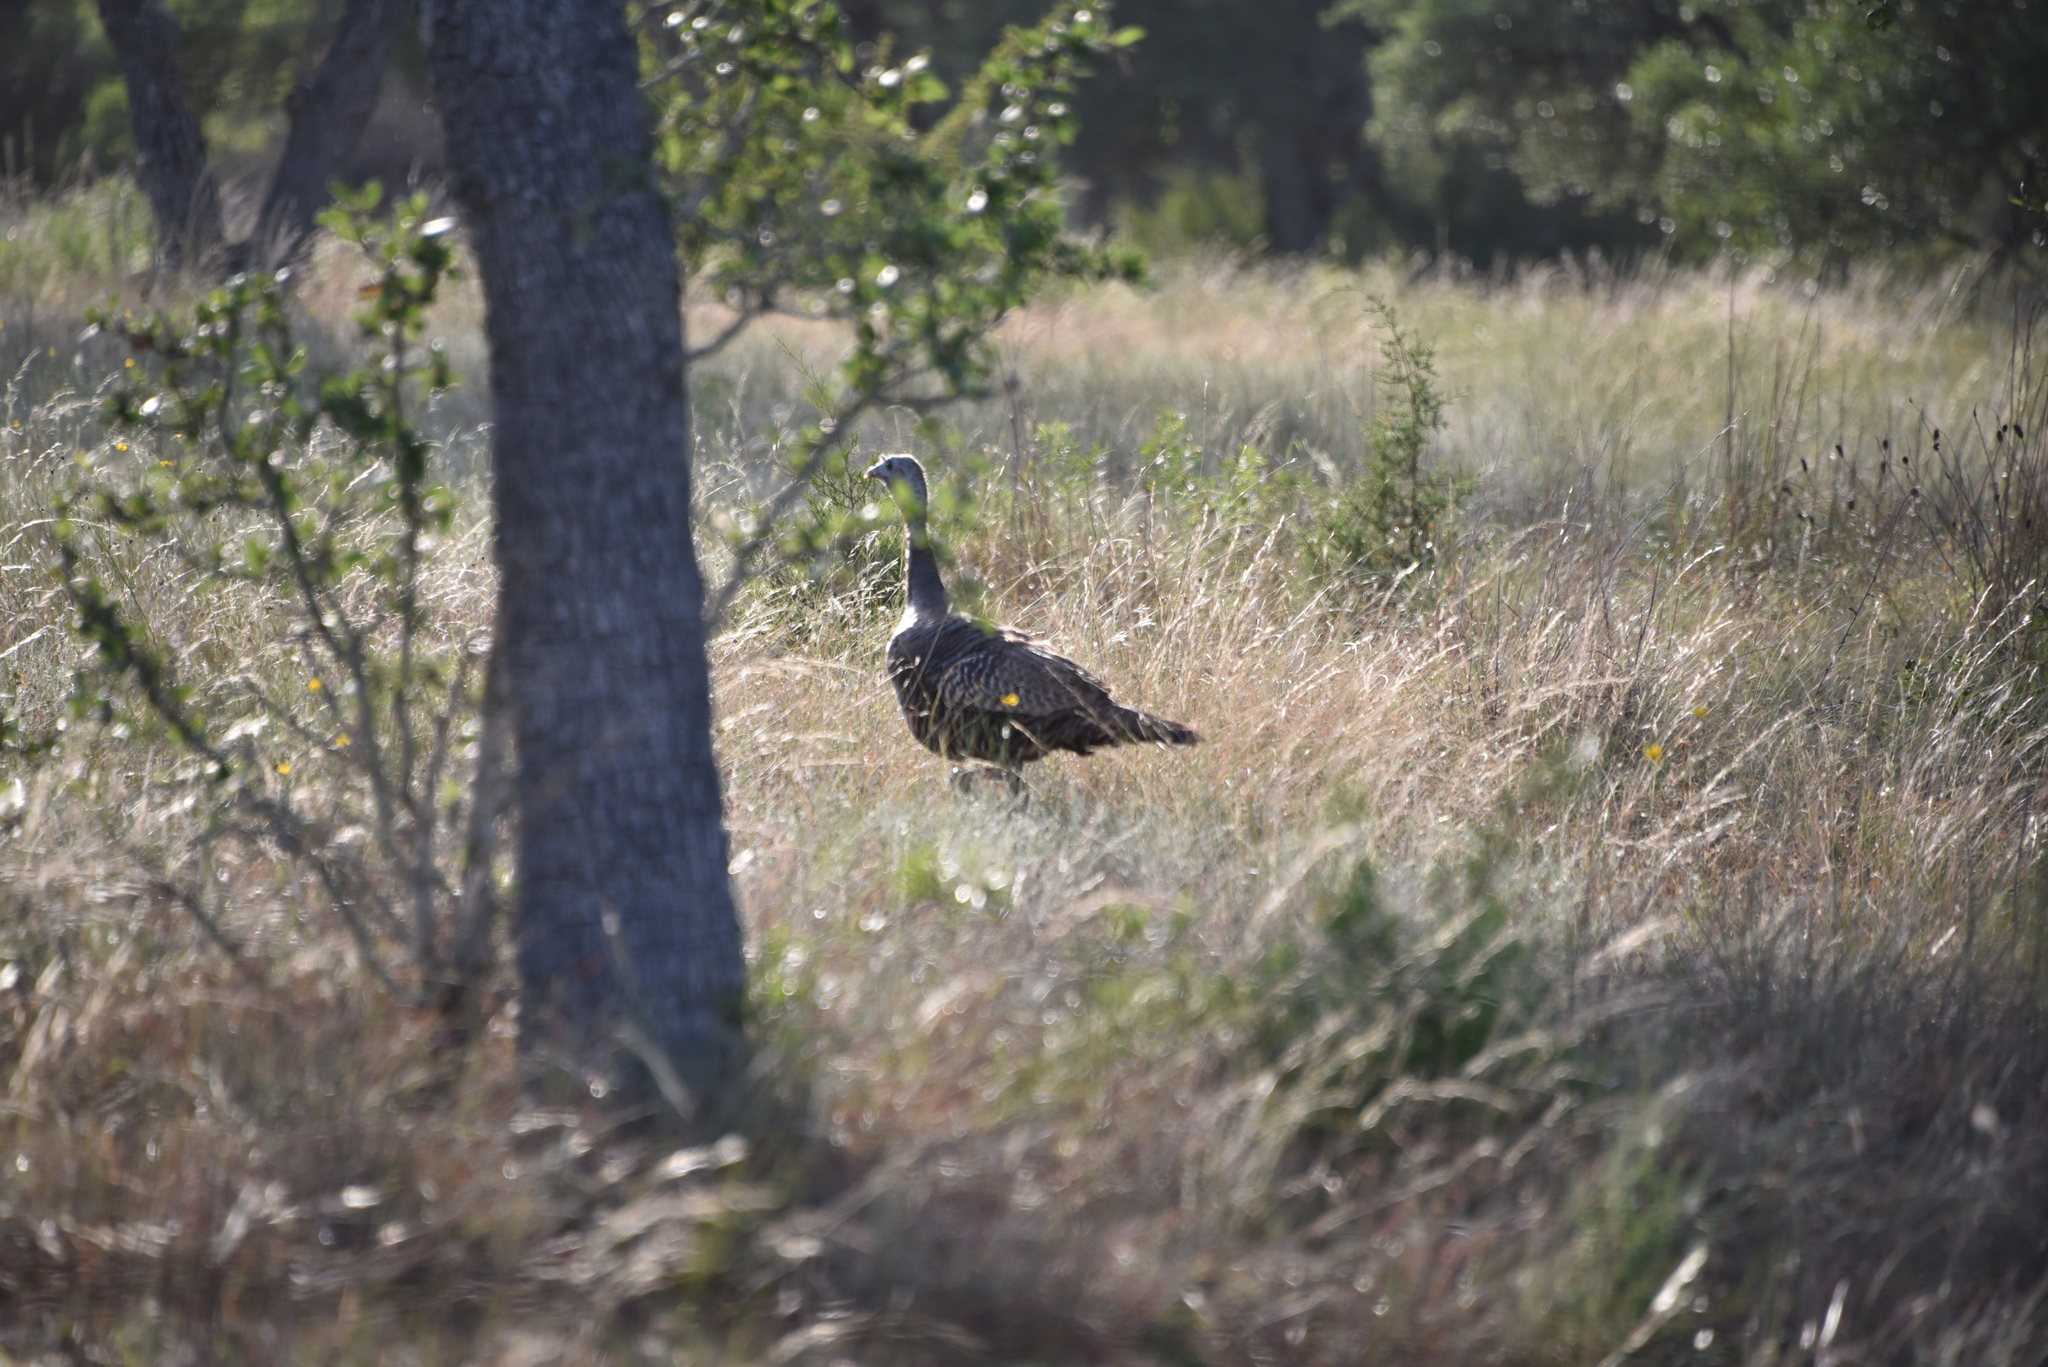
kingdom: Animalia
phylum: Chordata
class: Aves
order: Galliformes
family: Phasianidae
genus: Meleagris
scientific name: Meleagris gallopavo
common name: Wild turkey
